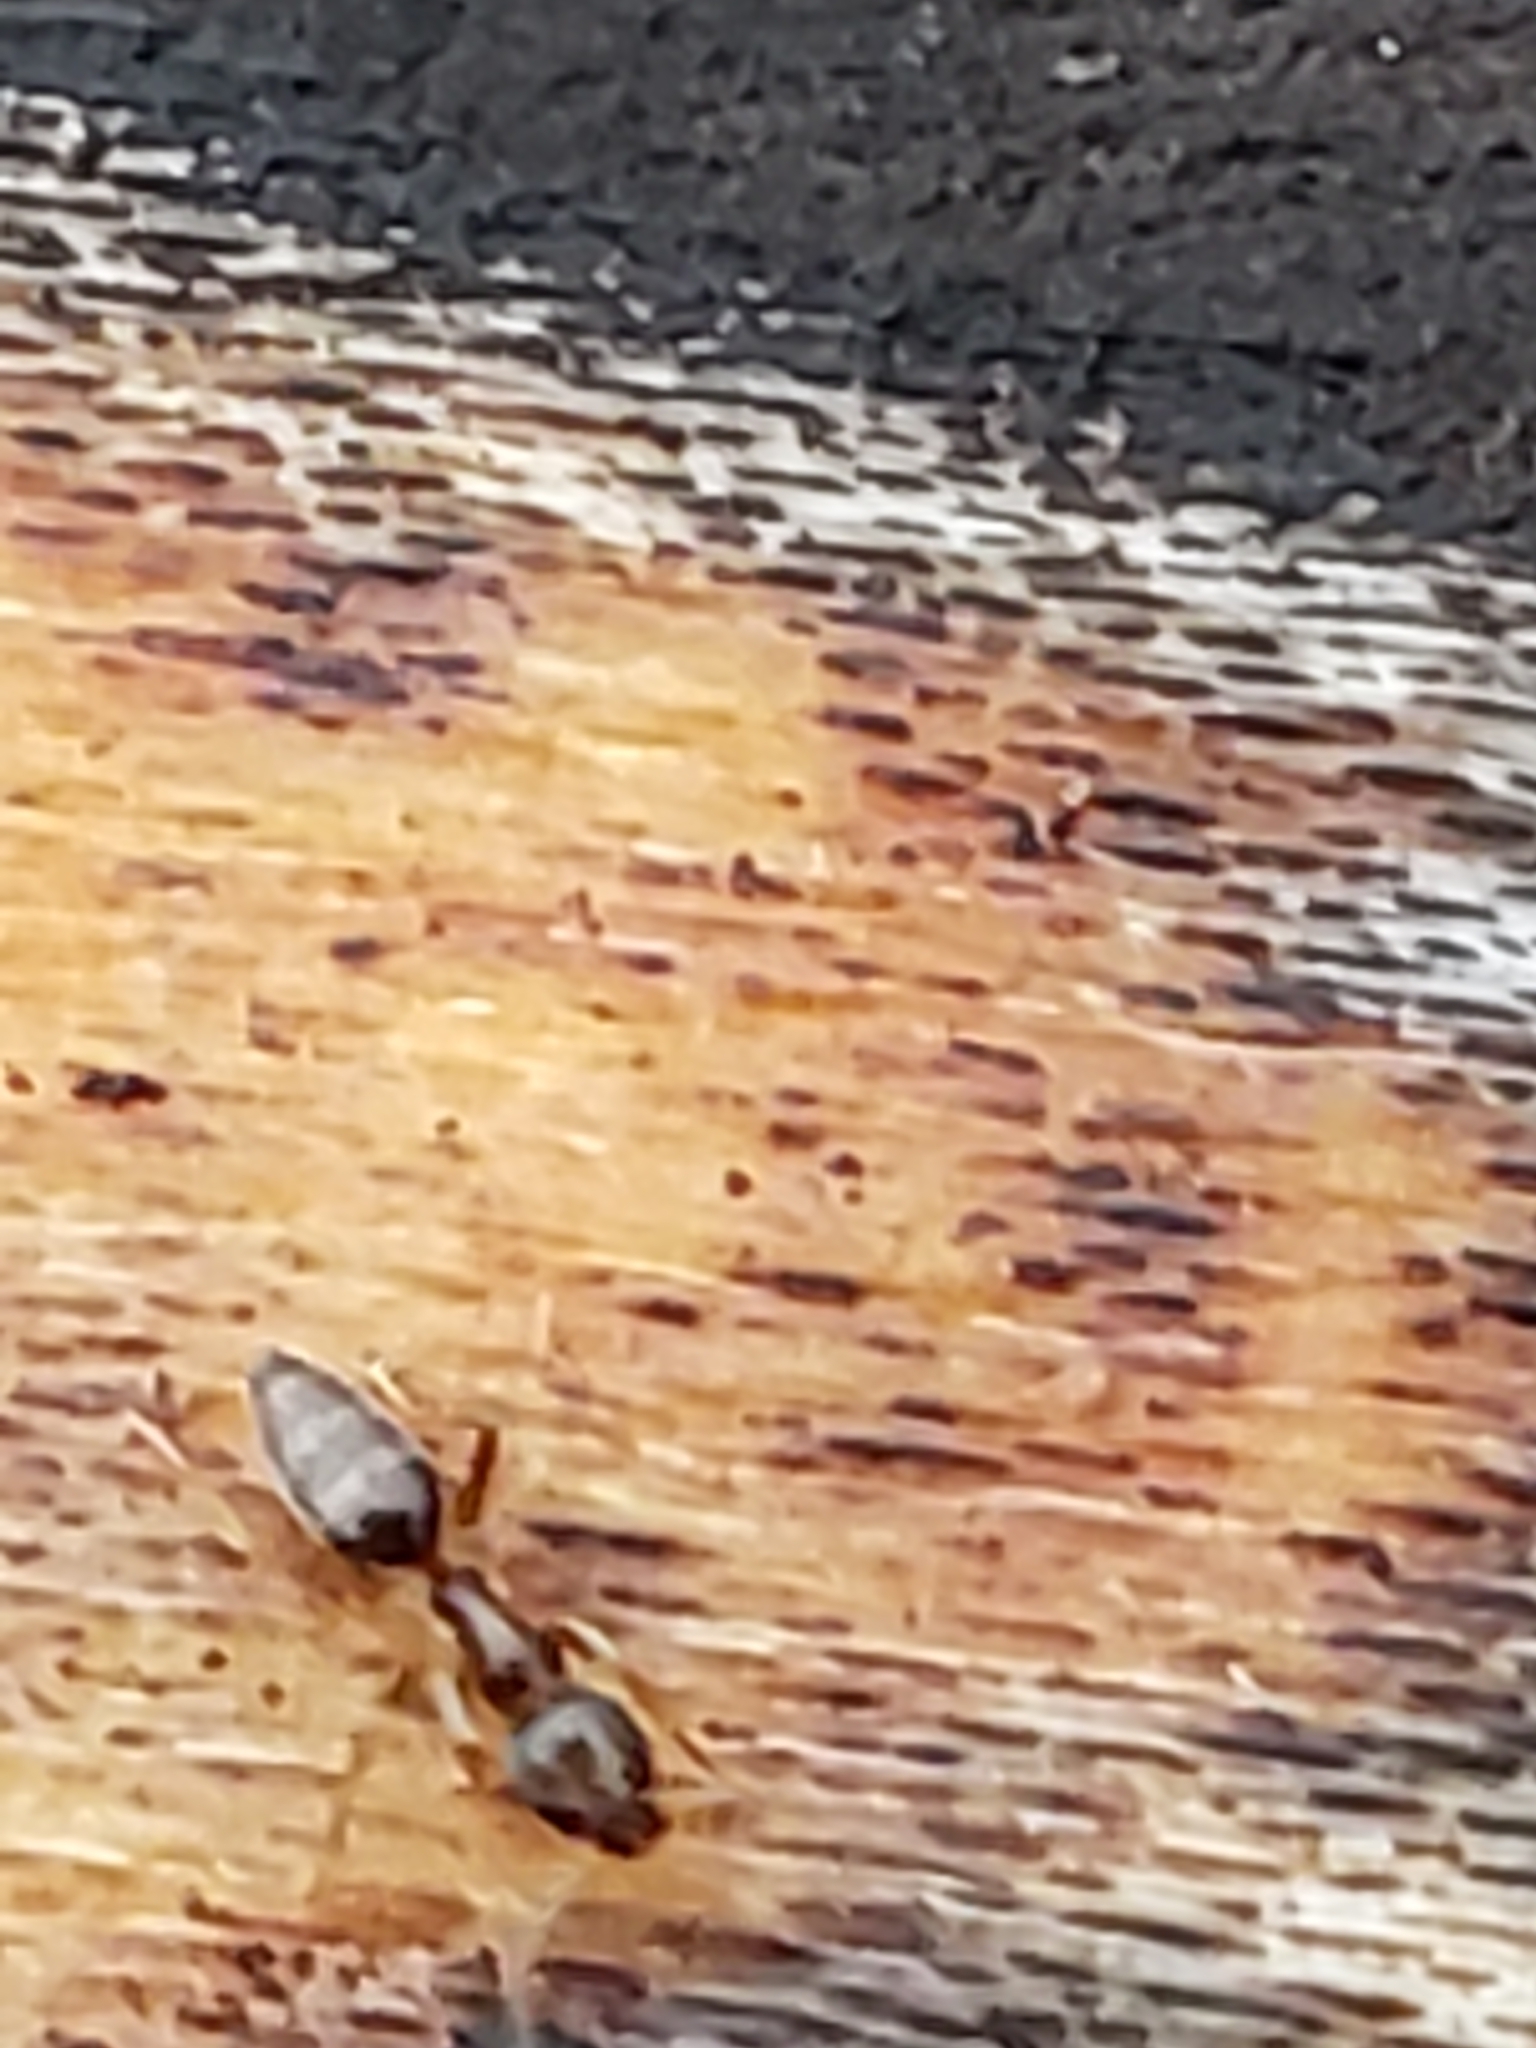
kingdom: Animalia
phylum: Arthropoda
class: Insecta
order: Hymenoptera
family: Formicidae
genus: Tapinoma
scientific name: Tapinoma sessile
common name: Odorous house ant
